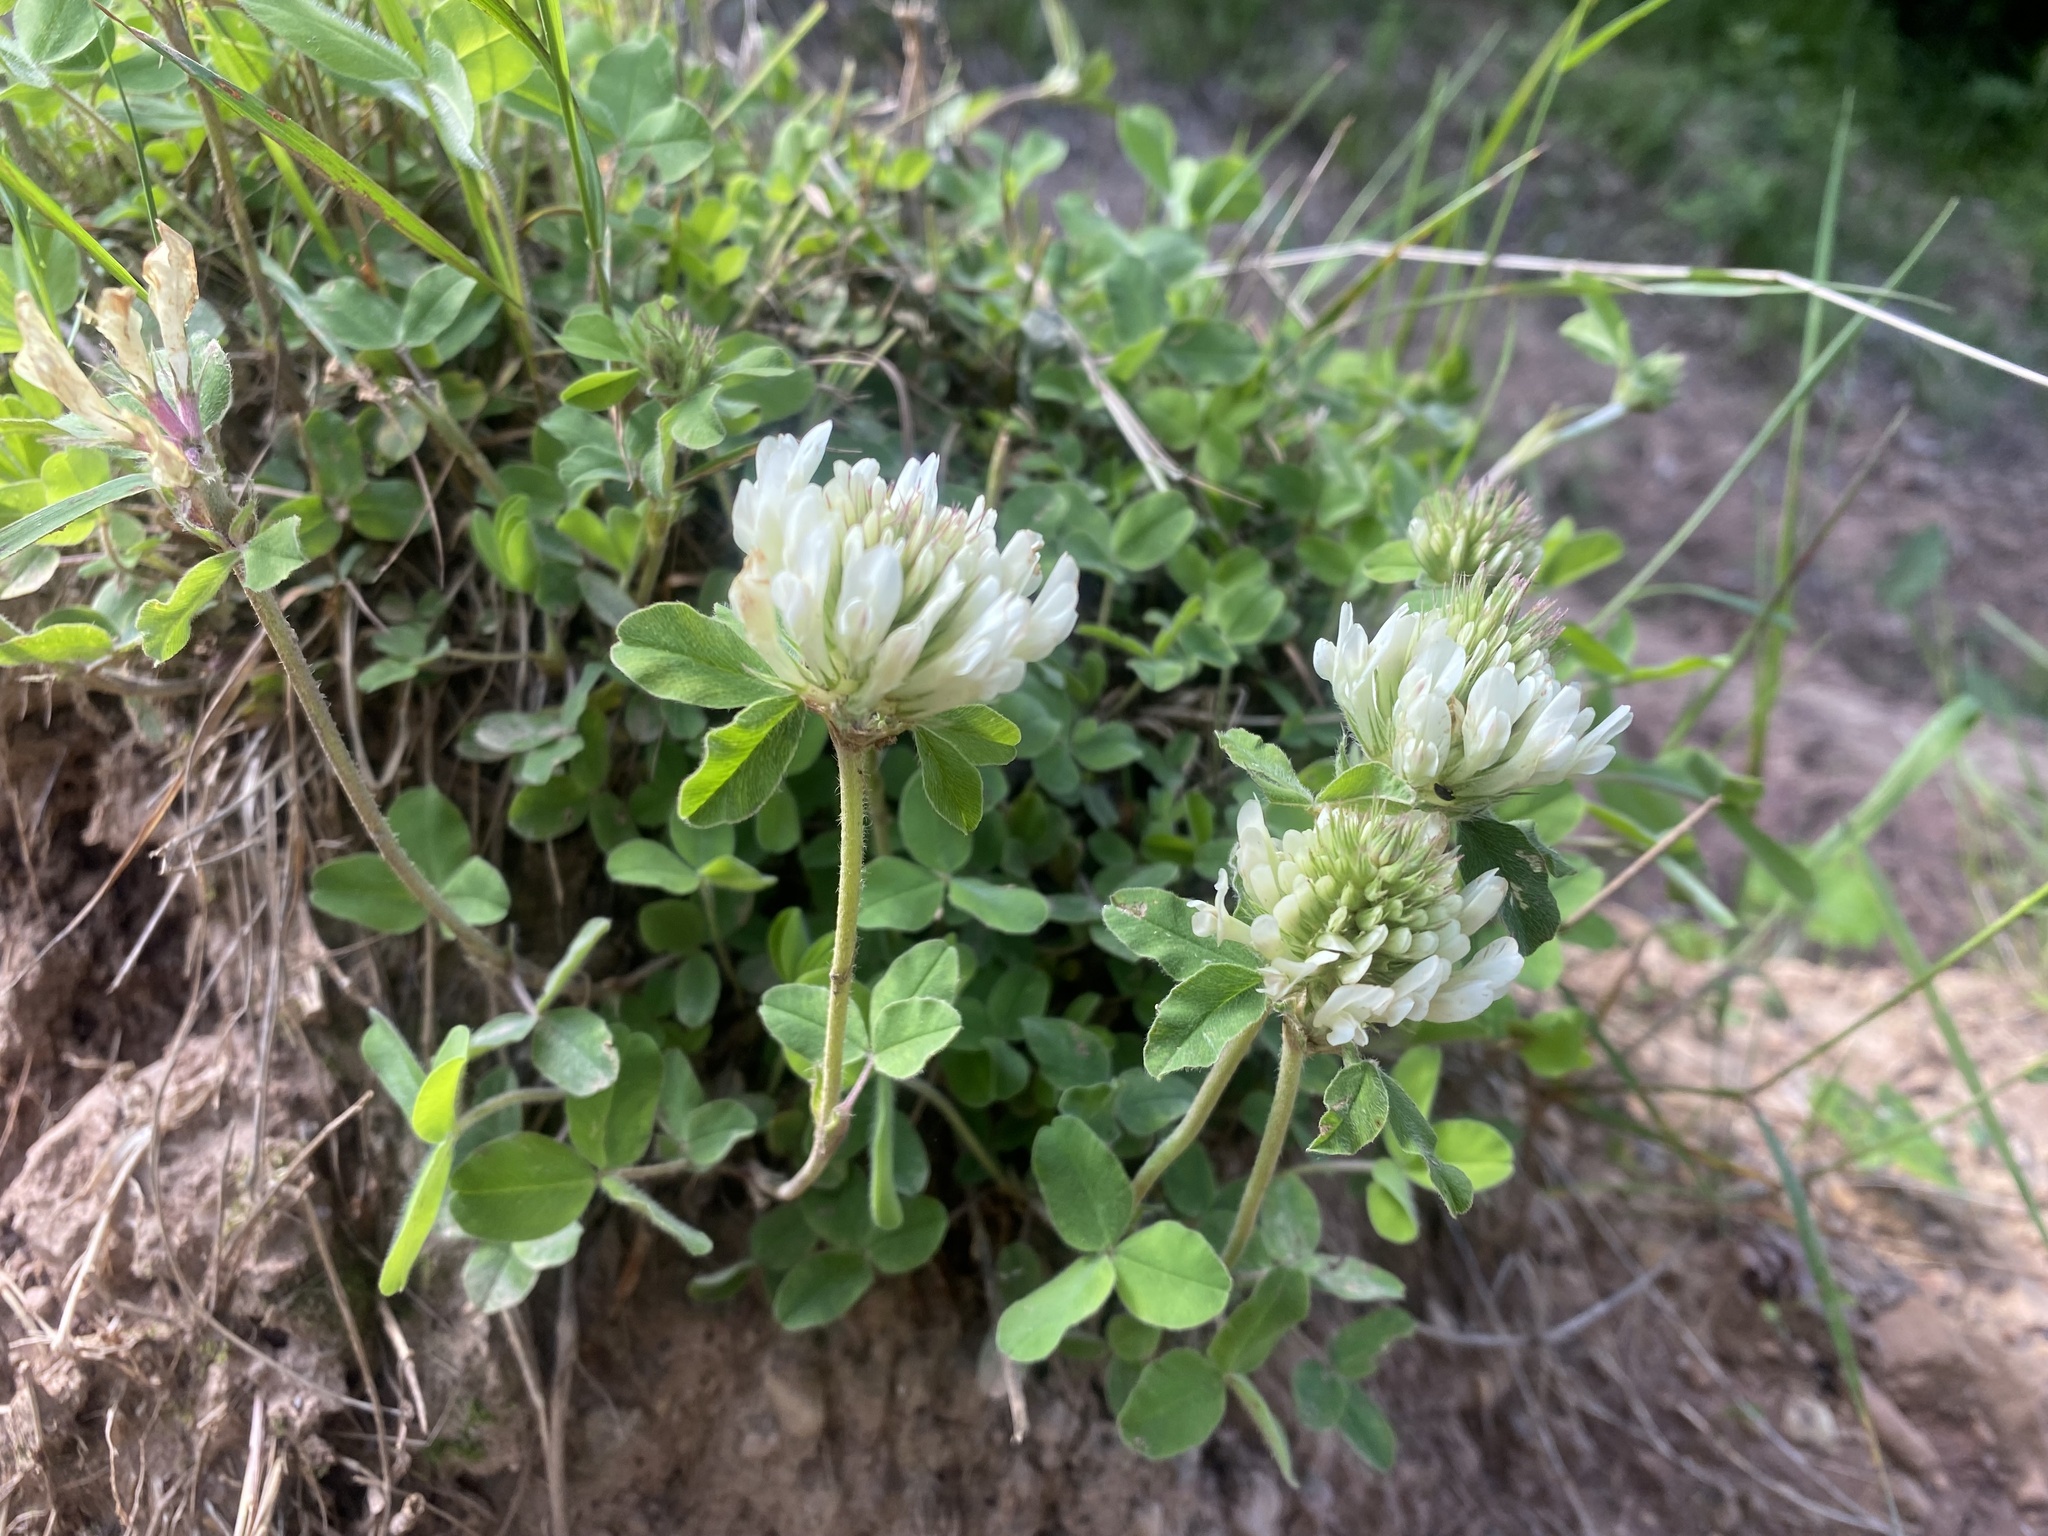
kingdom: Plantae
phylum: Tracheophyta
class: Magnoliopsida
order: Fabales
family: Fabaceae
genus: Trifolium
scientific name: Trifolium repens
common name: White clover
